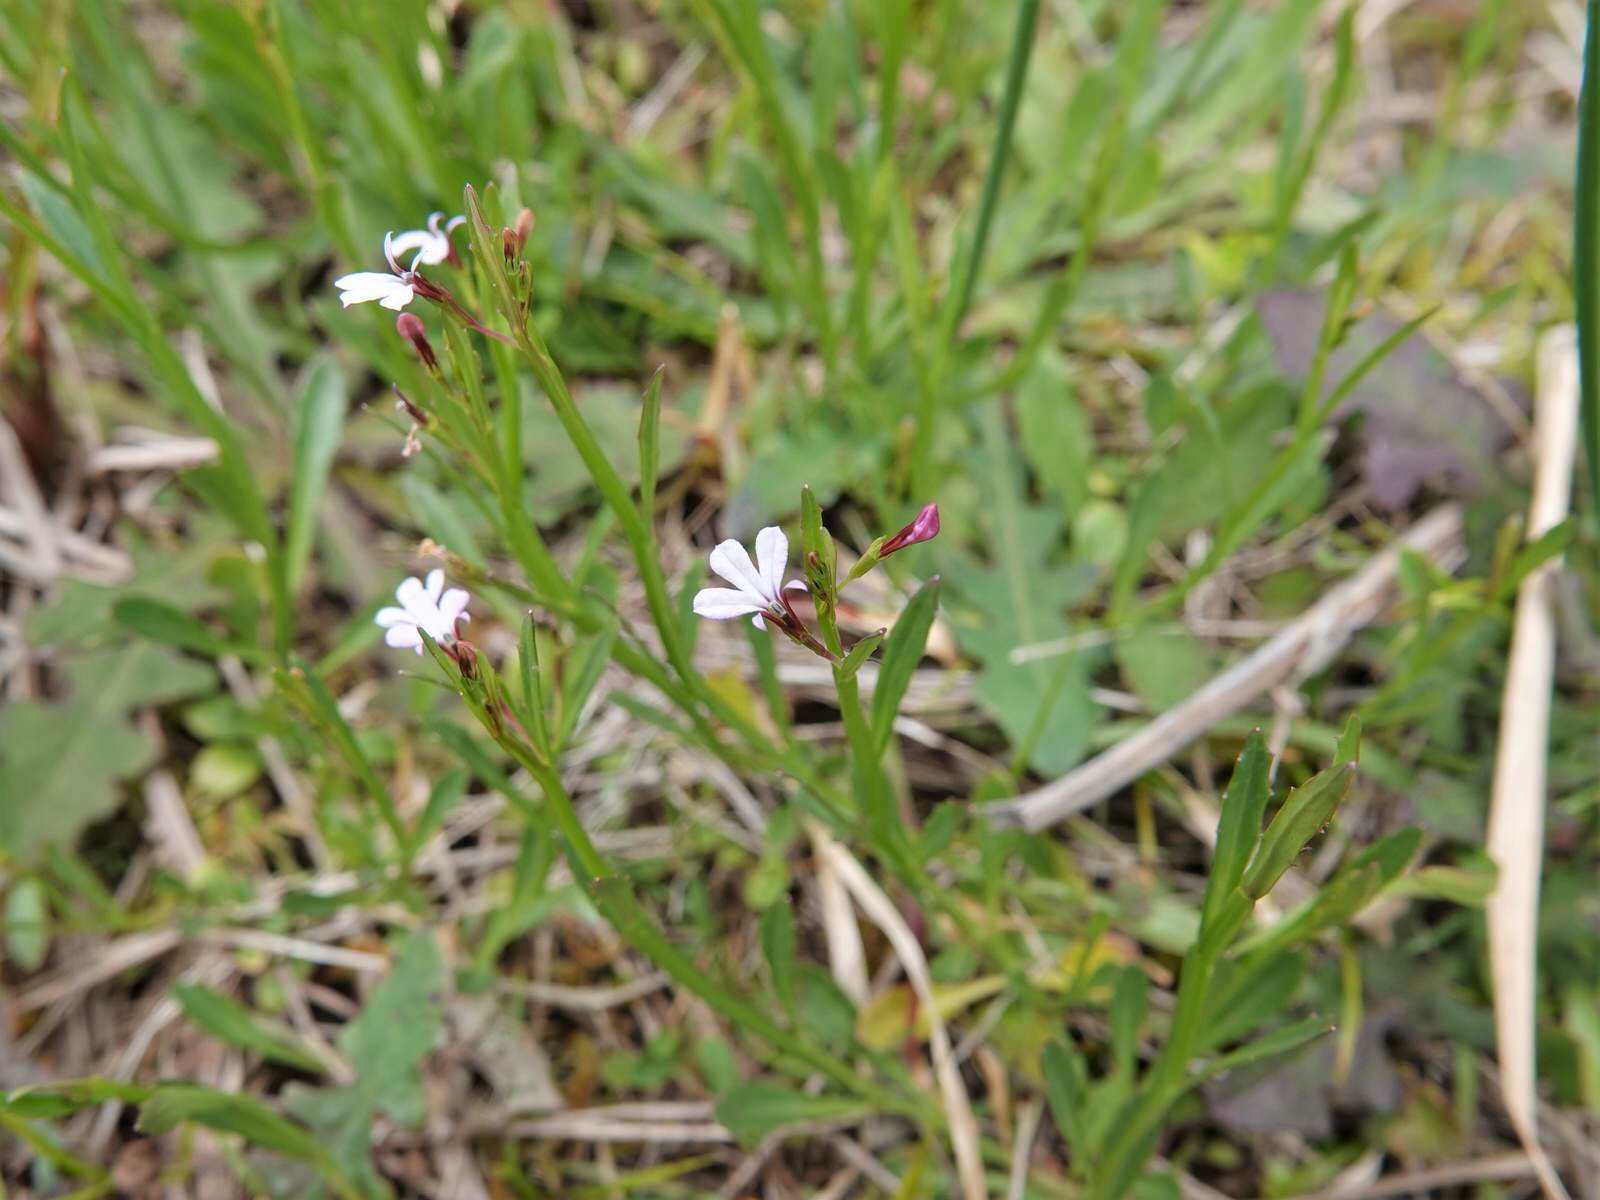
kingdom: Plantae
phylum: Tracheophyta
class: Magnoliopsida
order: Asterales
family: Campanulaceae
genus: Lobelia
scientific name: Lobelia anceps
